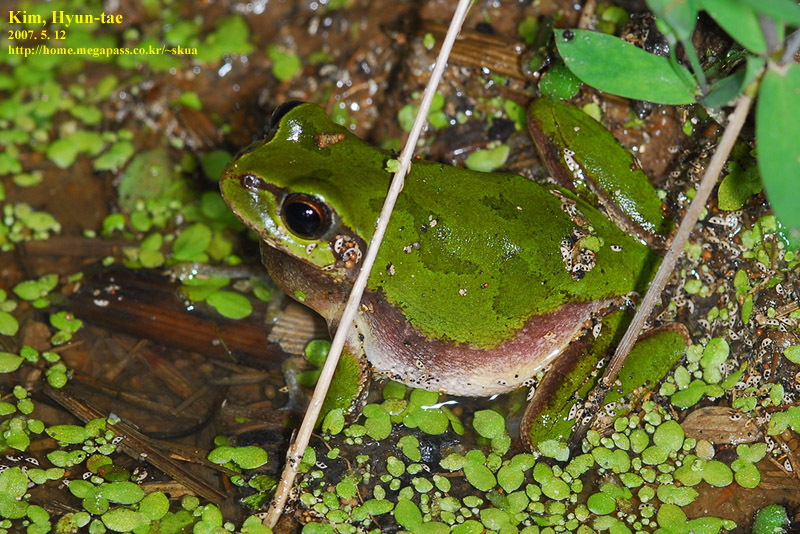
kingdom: Animalia
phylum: Chordata
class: Amphibia
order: Anura
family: Hylidae
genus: Dryophytes
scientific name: Dryophytes japonicus
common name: Japanese treefrog
